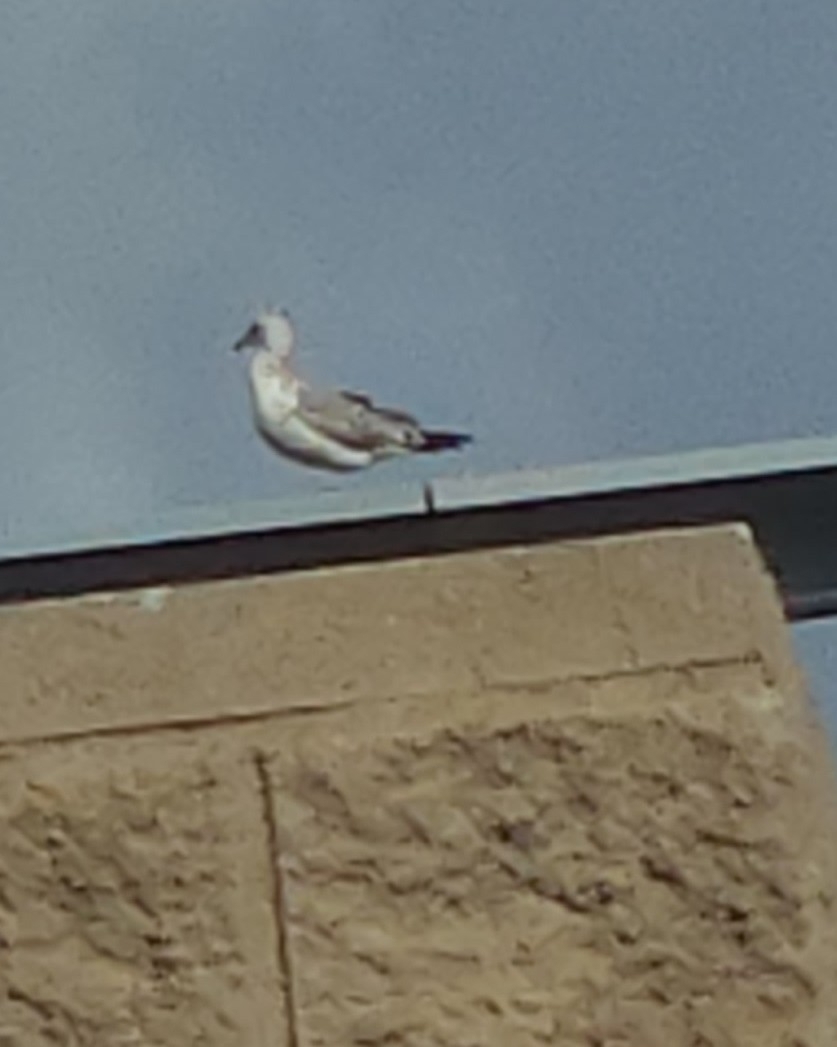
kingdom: Animalia
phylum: Chordata
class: Aves
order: Charadriiformes
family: Laridae
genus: Larus
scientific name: Larus
